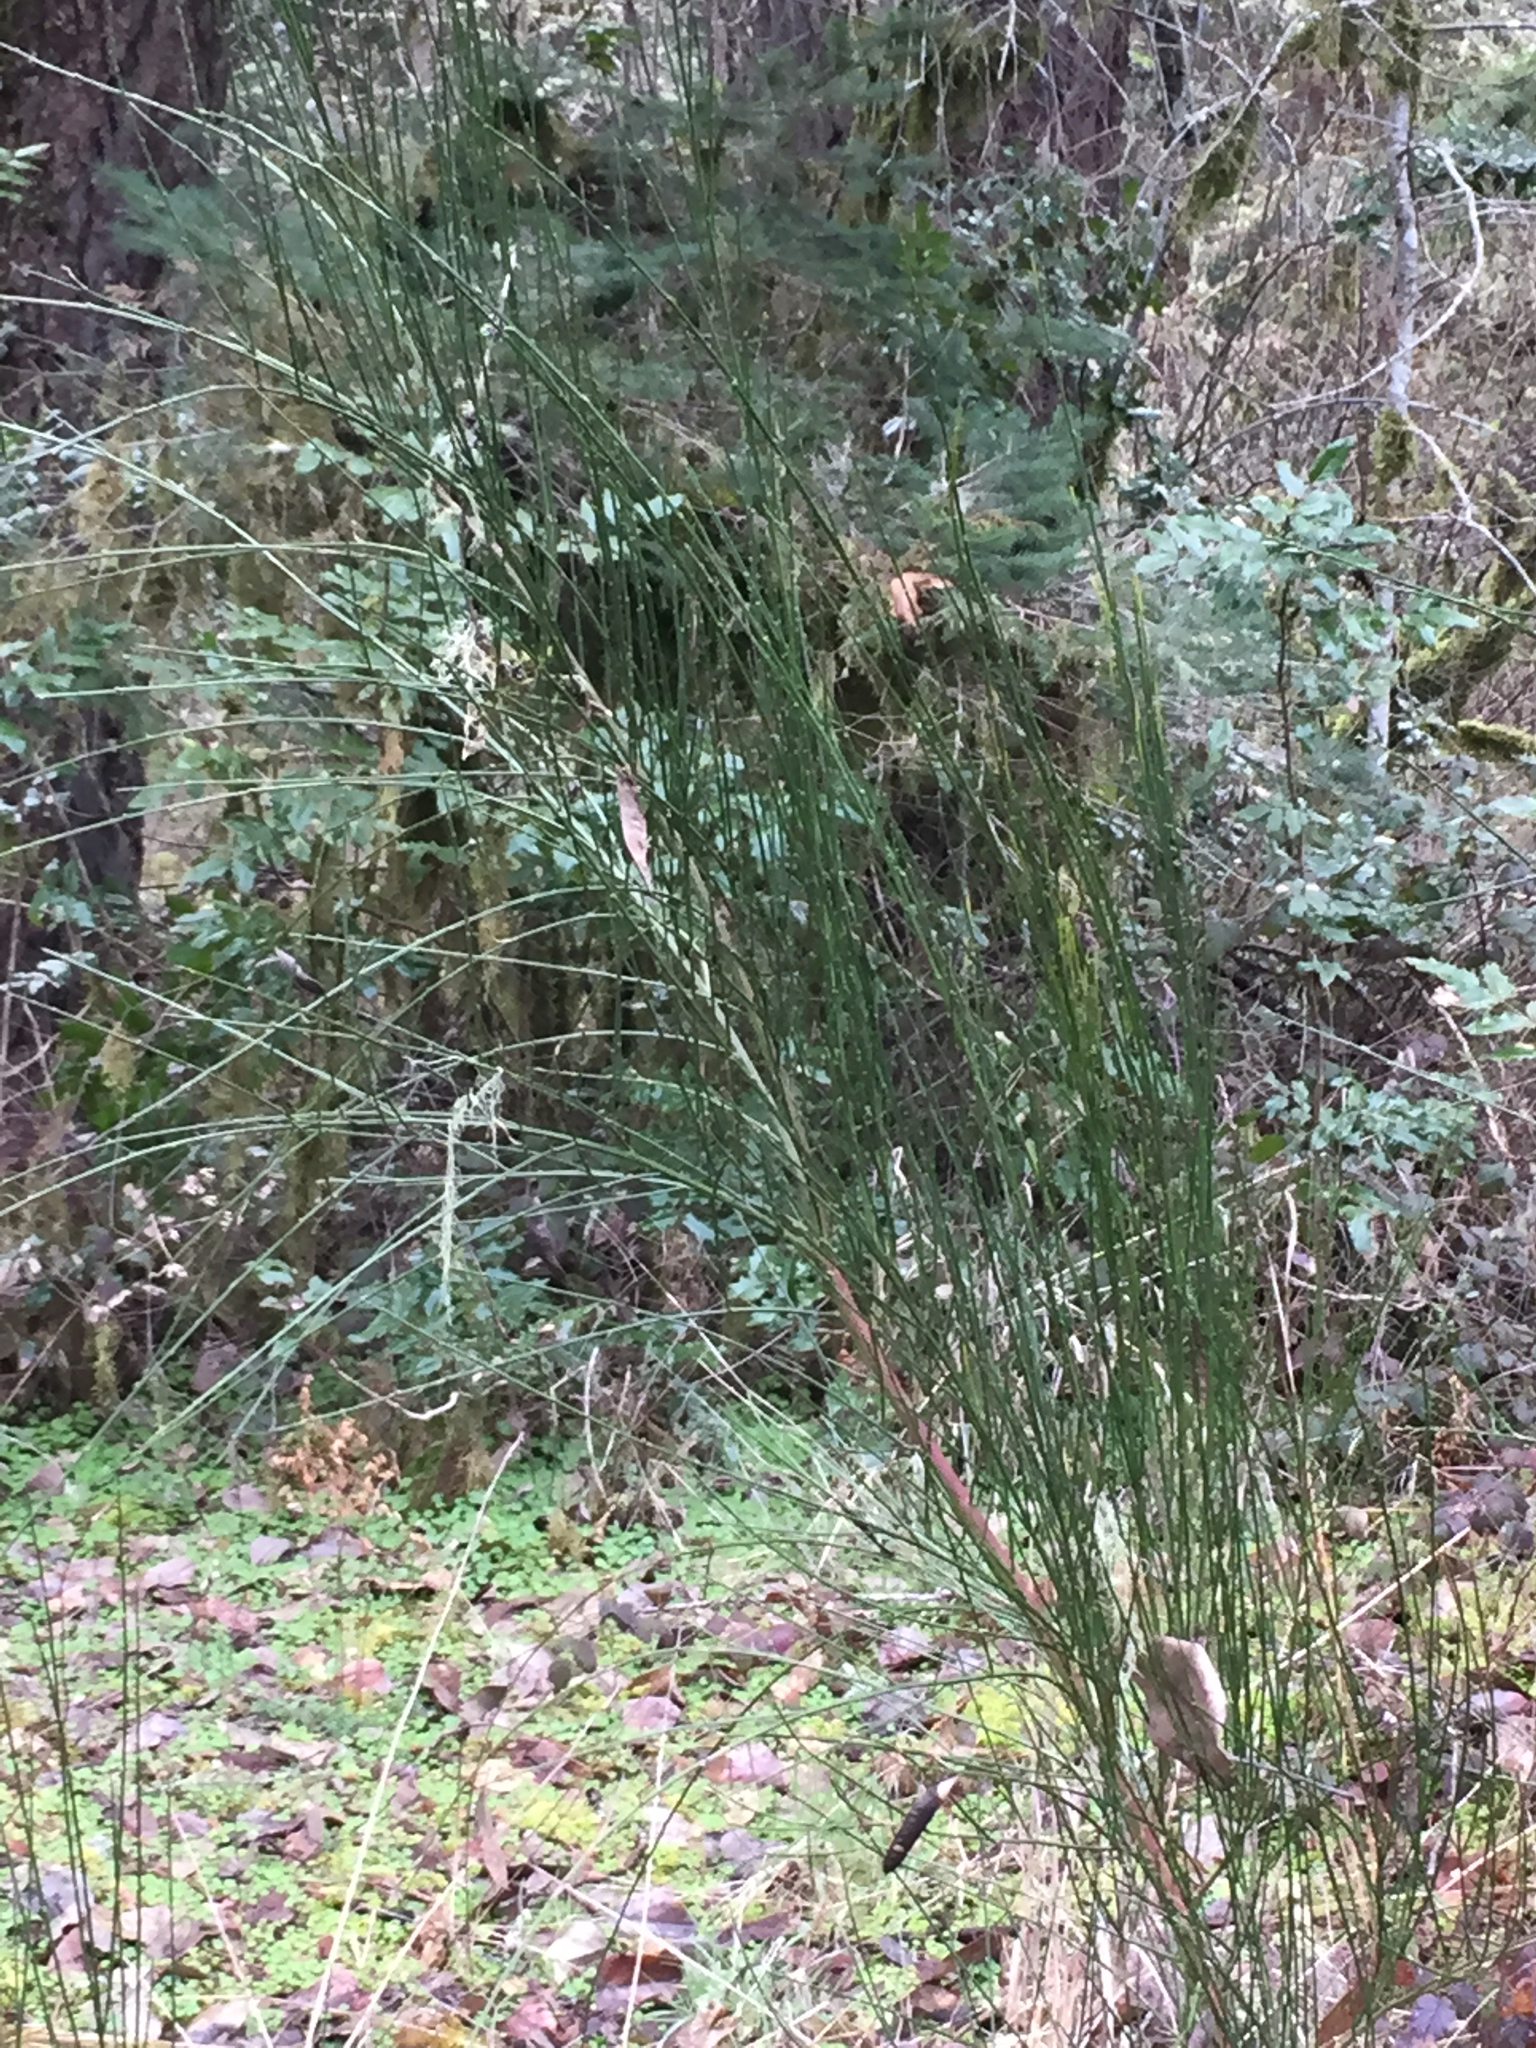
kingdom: Plantae
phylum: Tracheophyta
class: Magnoliopsida
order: Fabales
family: Fabaceae
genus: Cytisus
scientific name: Cytisus scoparius
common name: Scotch broom
